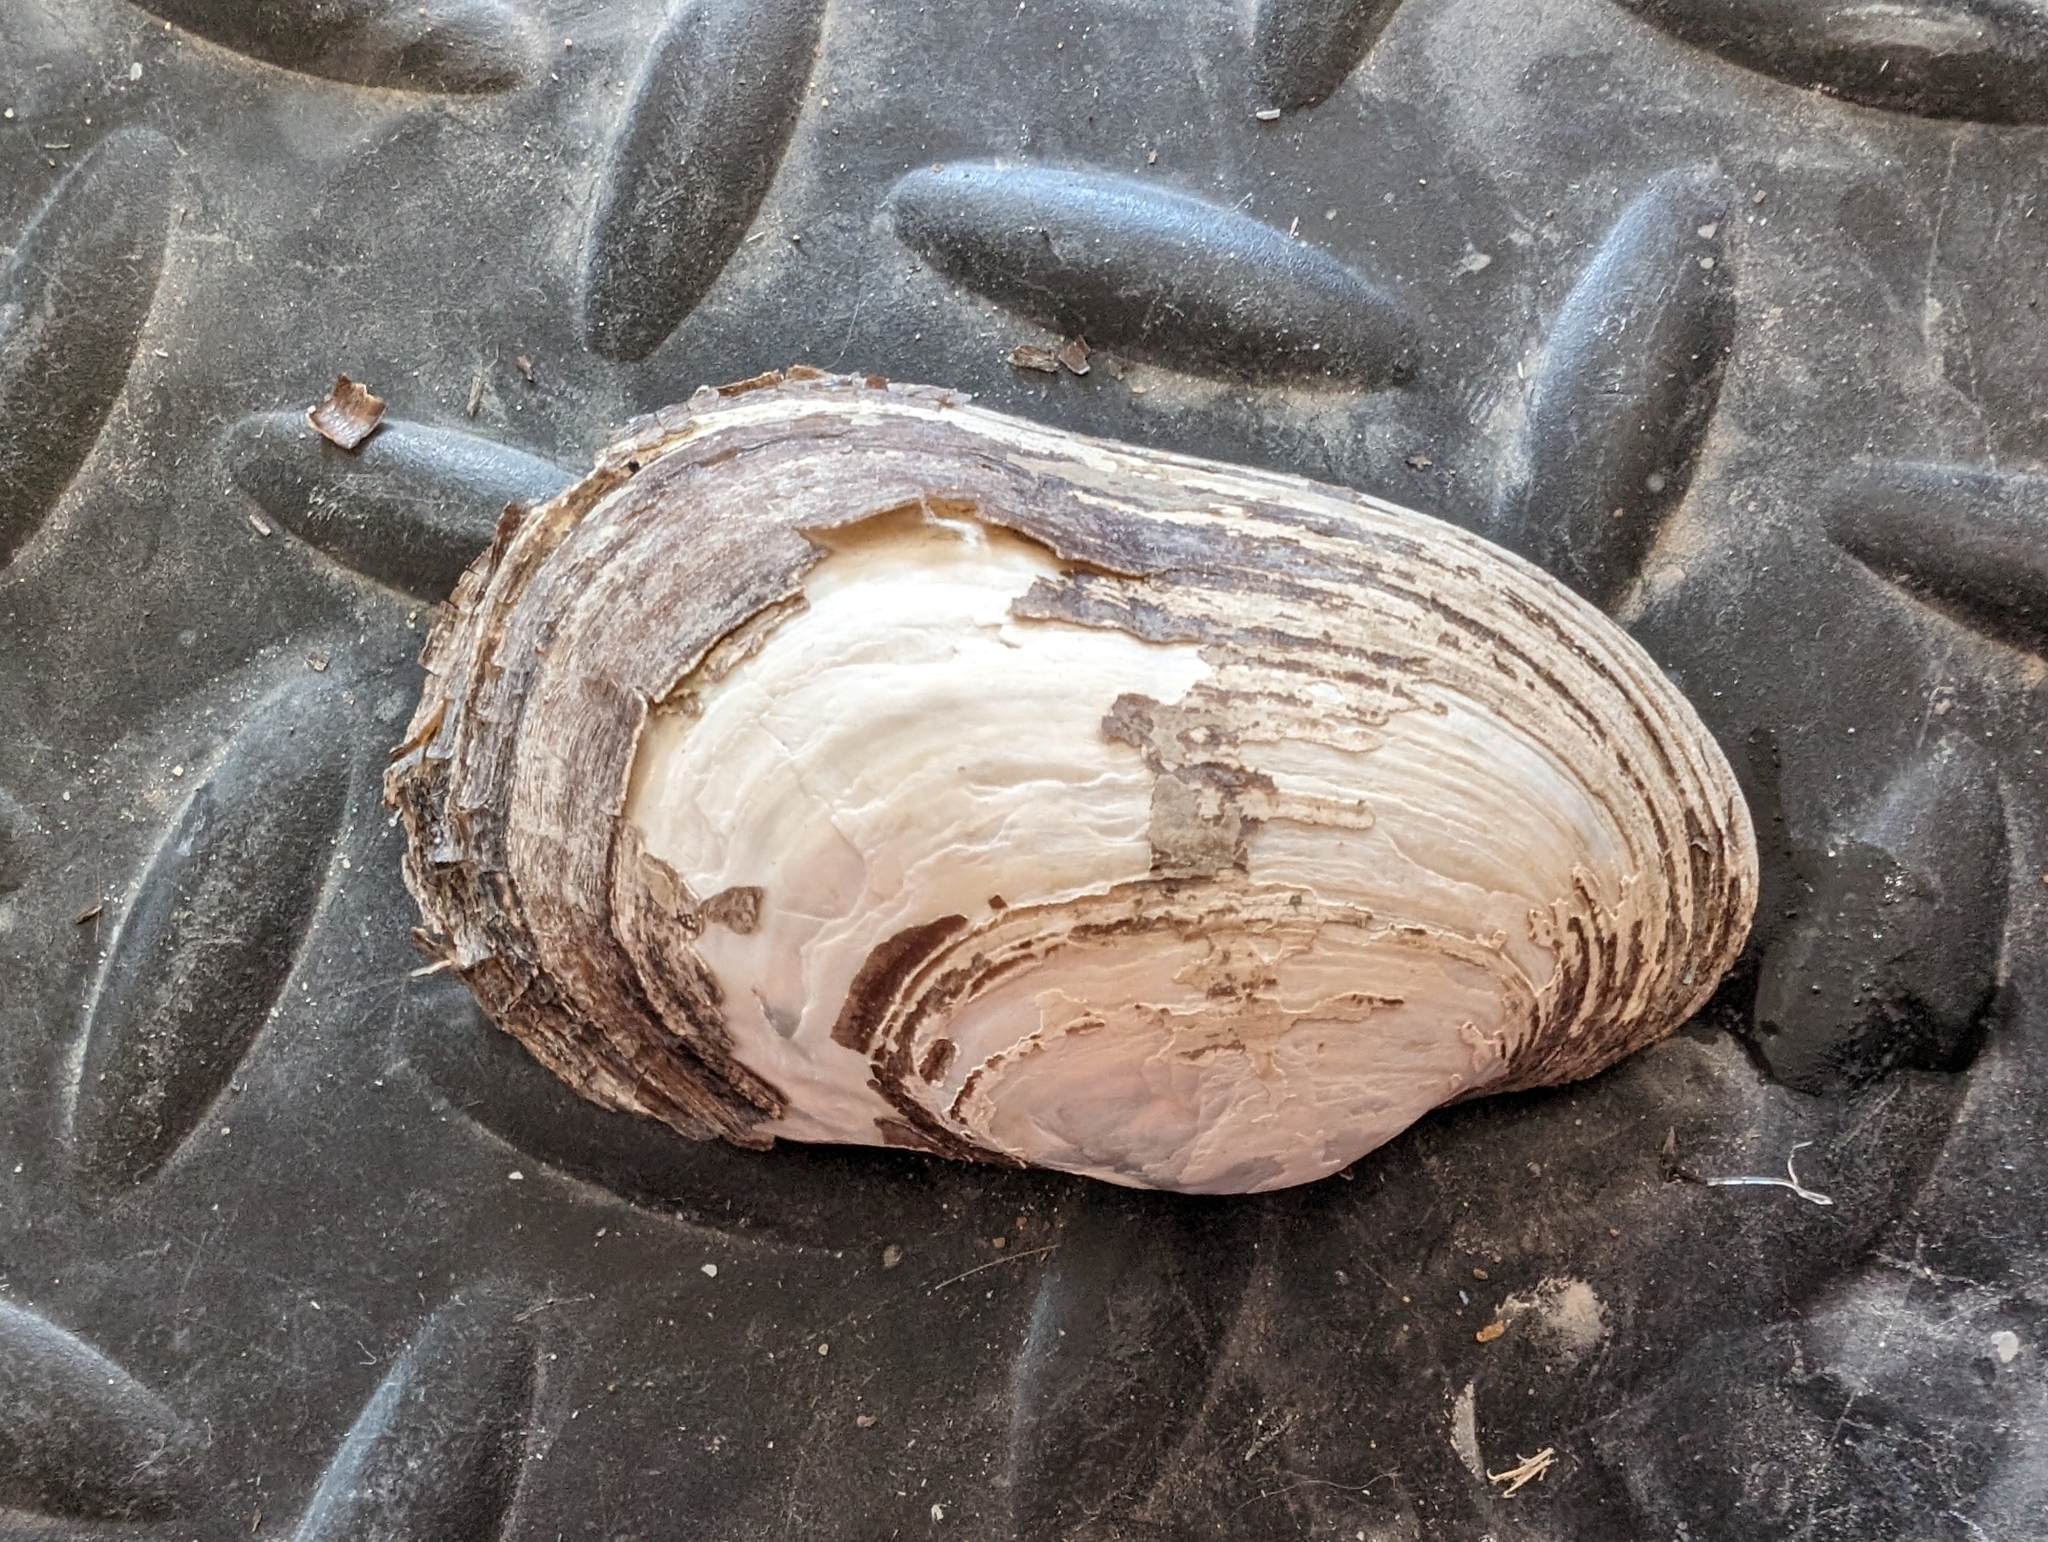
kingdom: Animalia
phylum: Mollusca
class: Bivalvia
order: Unionida
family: Unionidae
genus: Lampsilis
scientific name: Lampsilis siliquoidea
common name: Fatmucket
